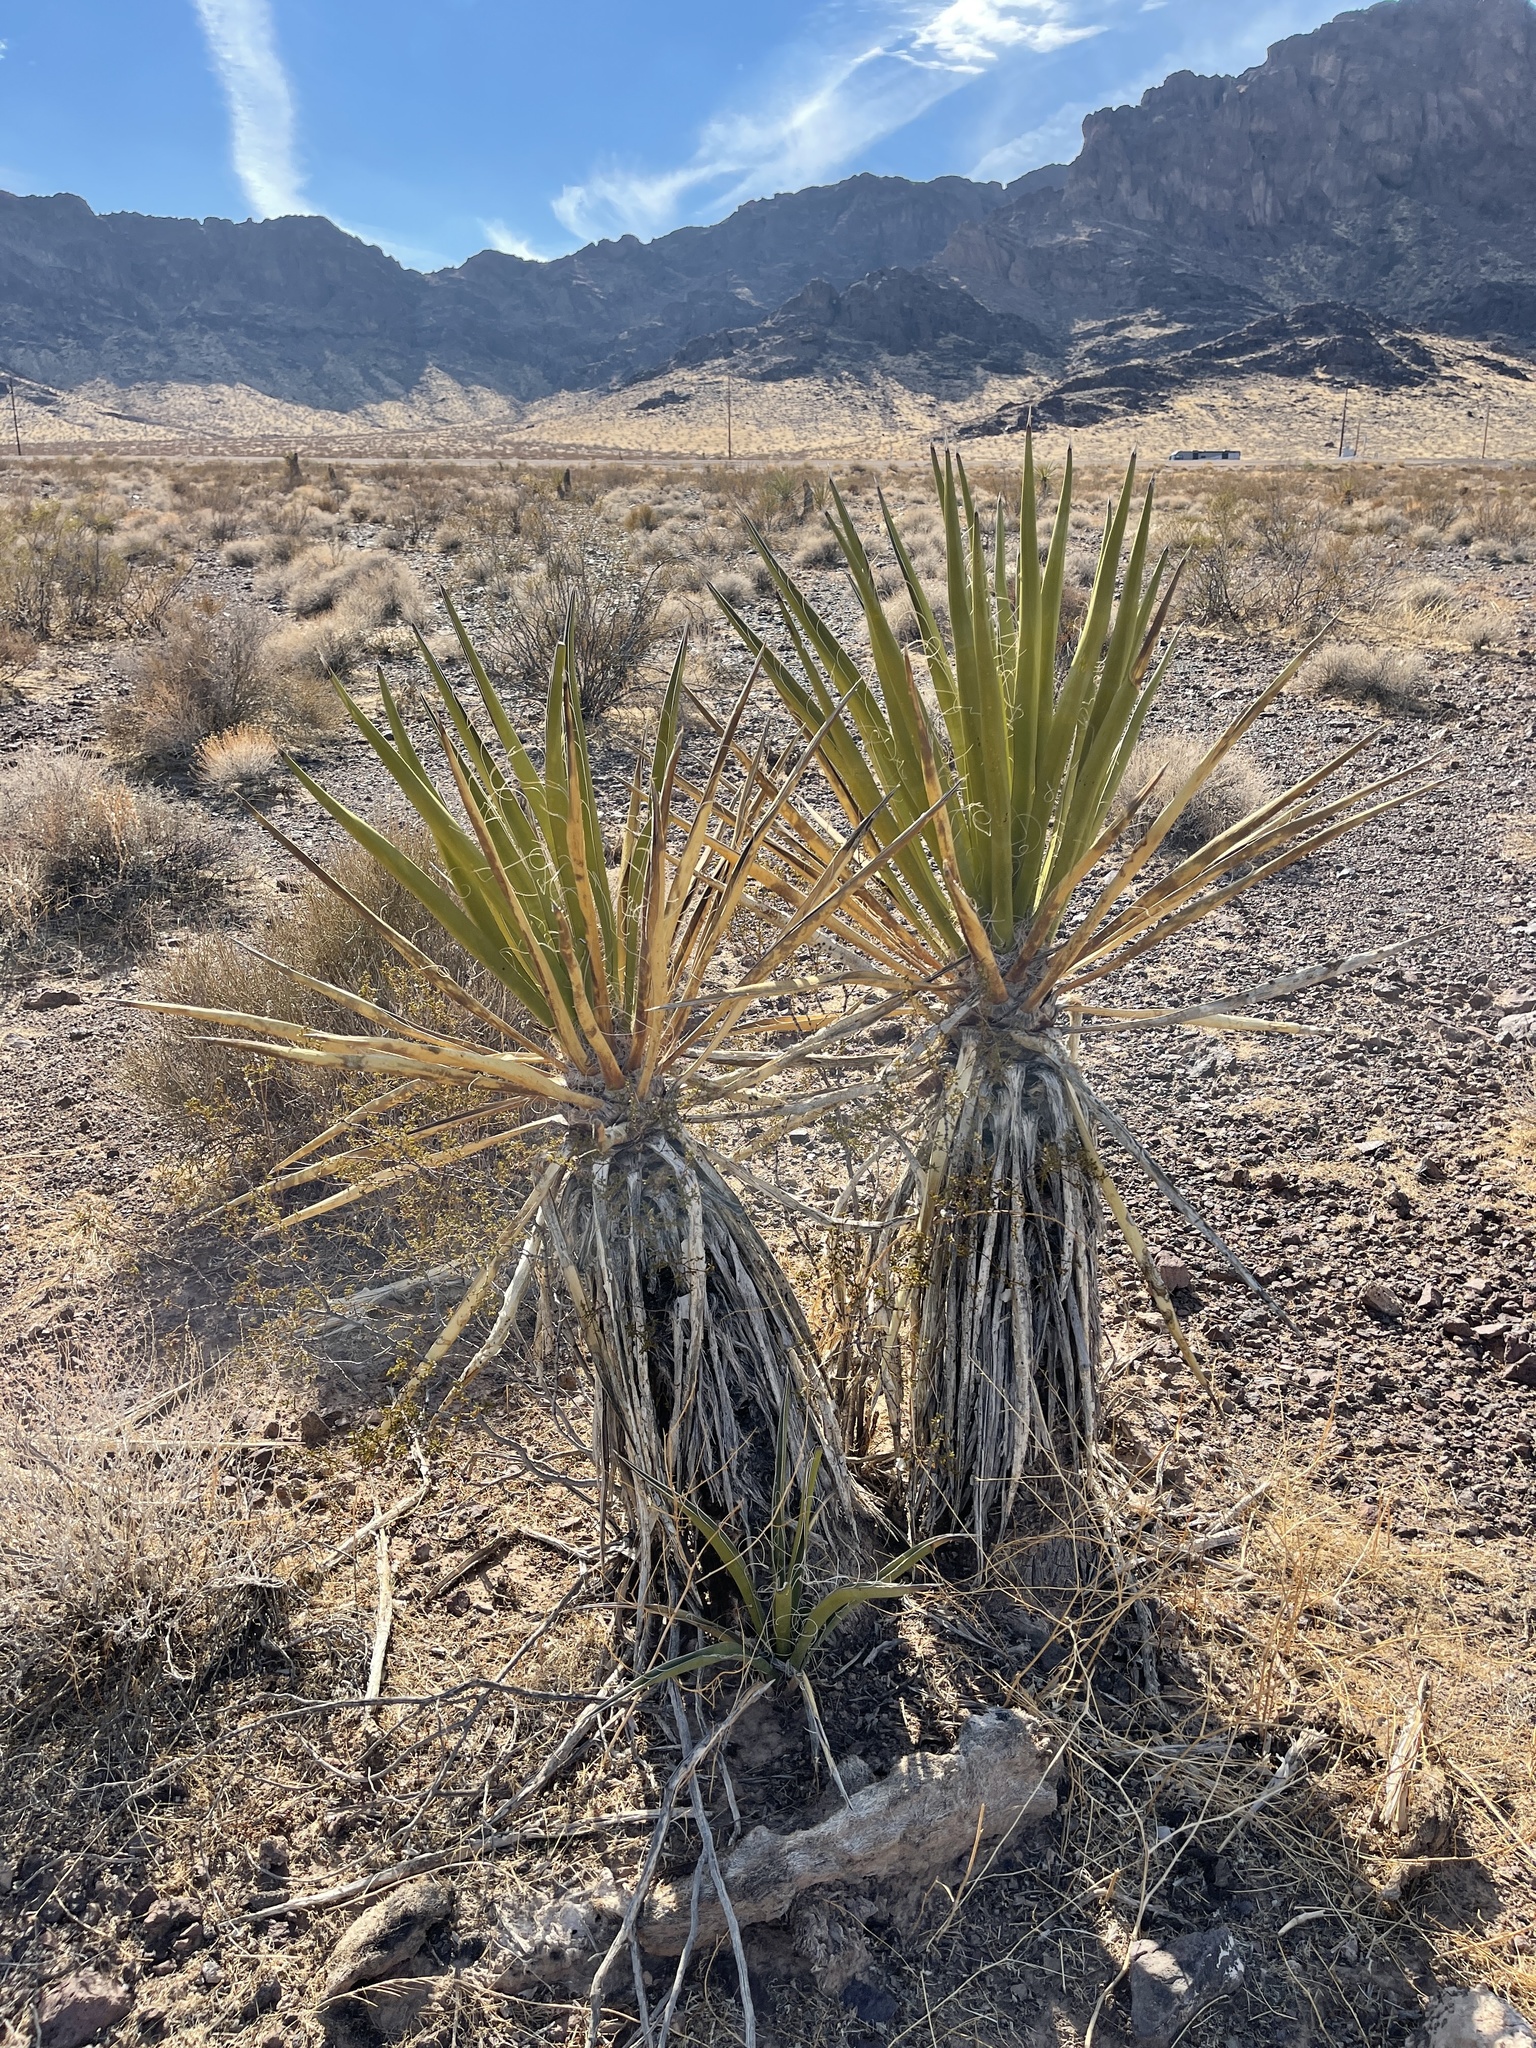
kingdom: Plantae
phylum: Tracheophyta
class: Liliopsida
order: Asparagales
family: Asparagaceae
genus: Yucca
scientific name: Yucca schidigera
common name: Mojave yucca
